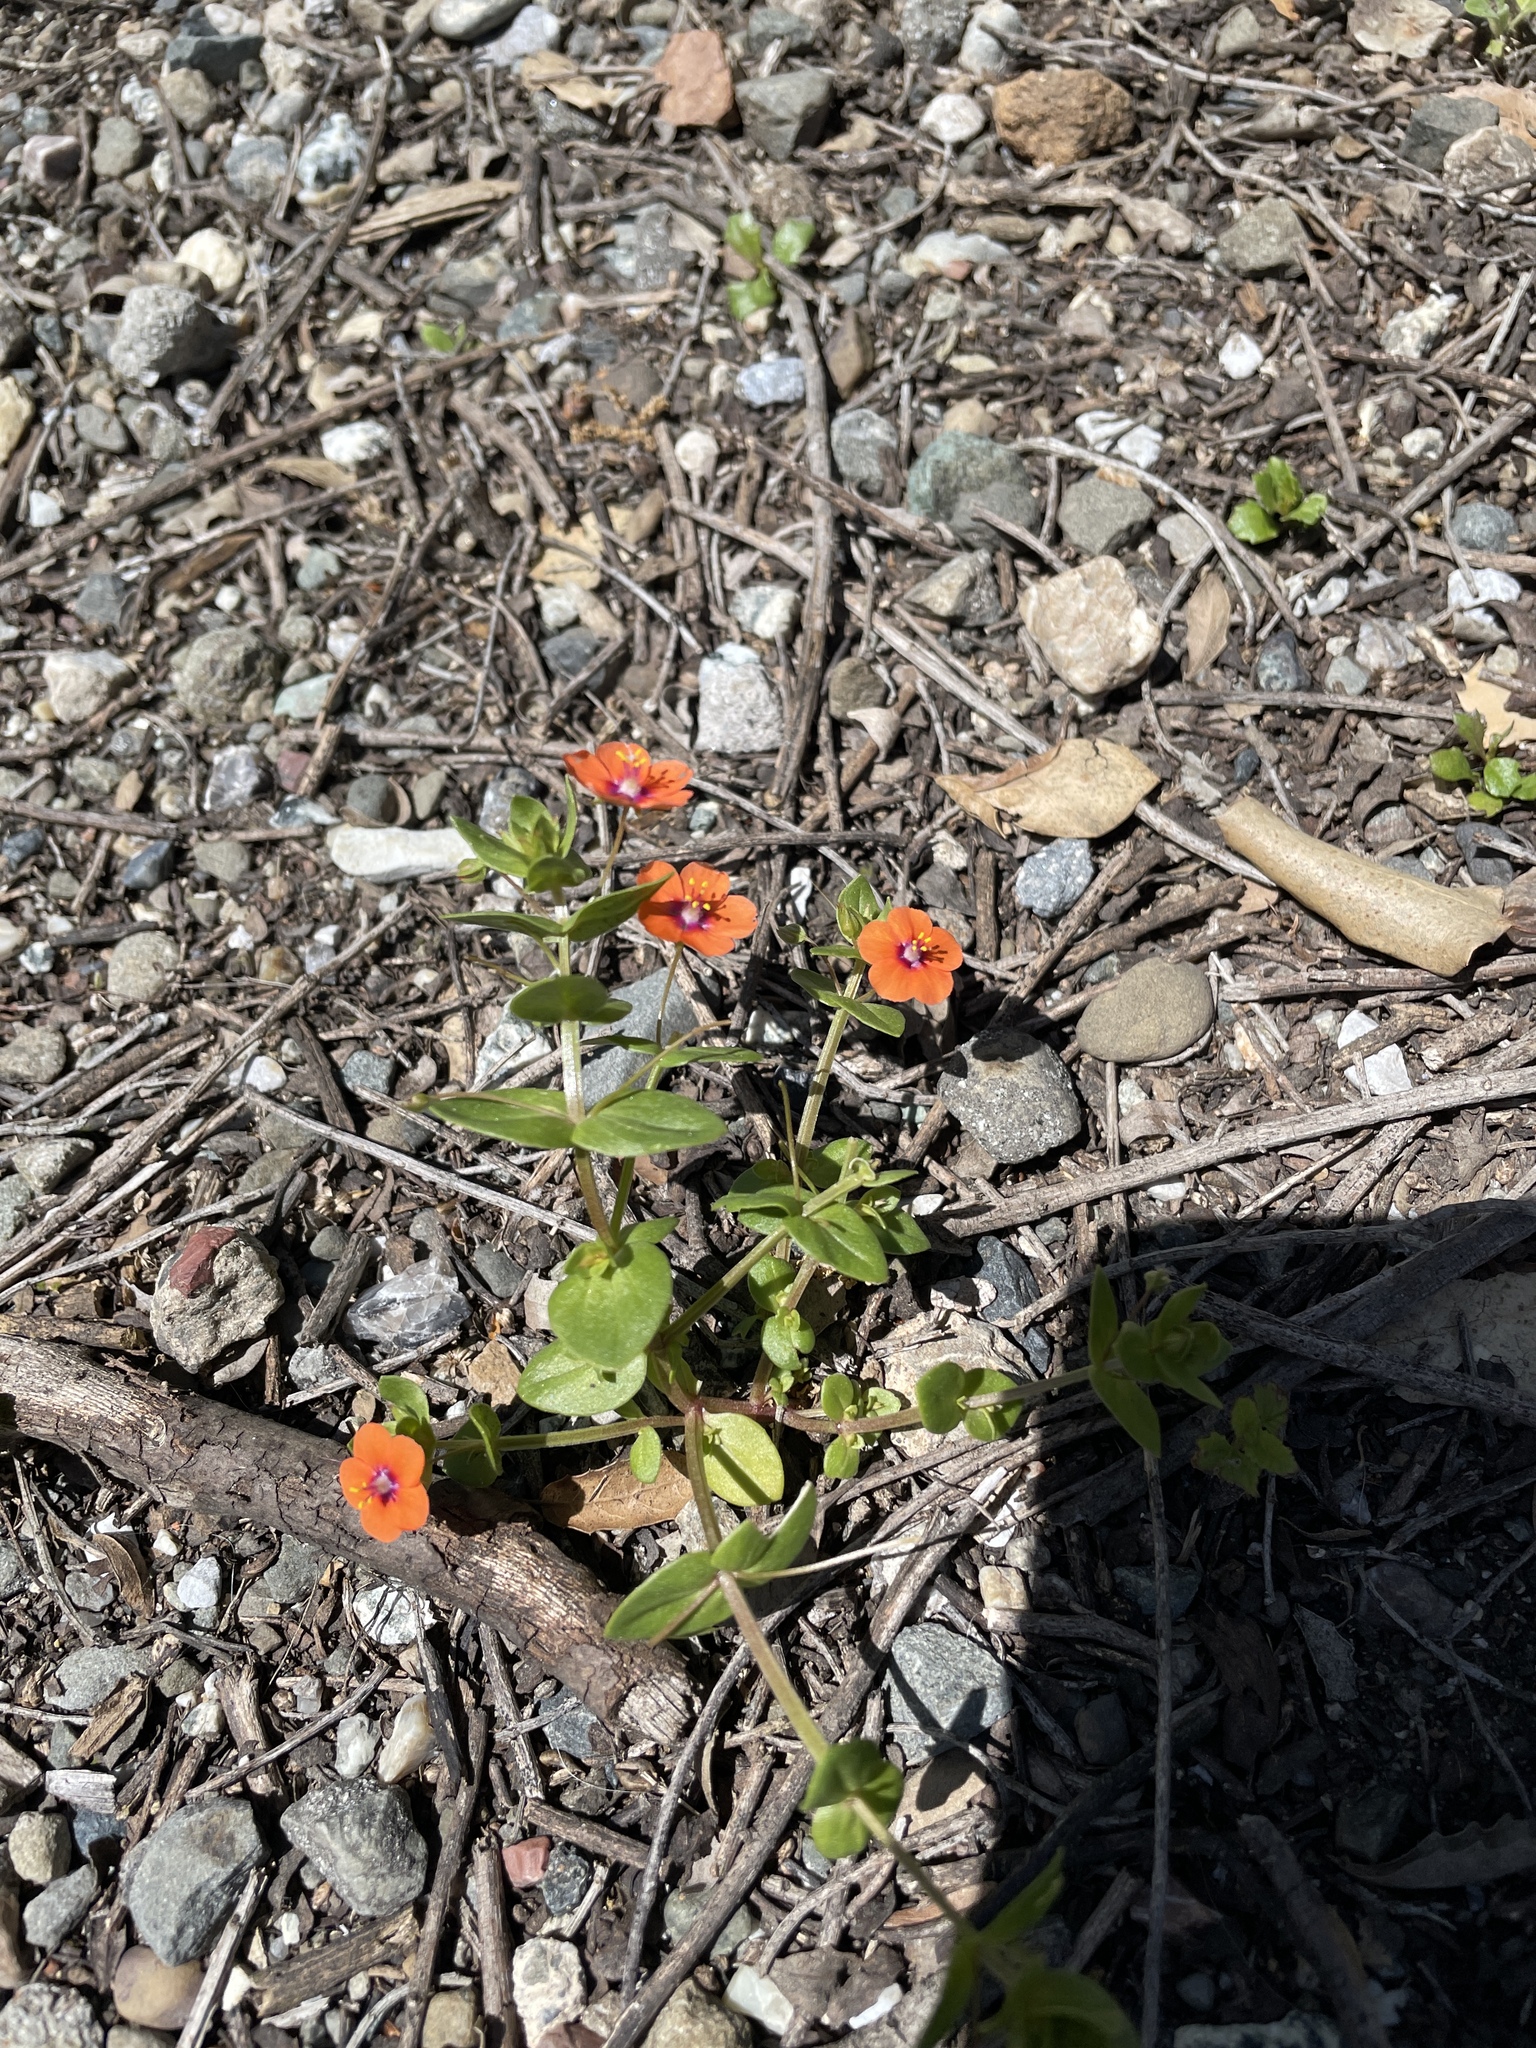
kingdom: Plantae
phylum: Tracheophyta
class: Magnoliopsida
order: Ericales
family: Primulaceae
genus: Lysimachia
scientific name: Lysimachia arvensis
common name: Scarlet pimpernel
